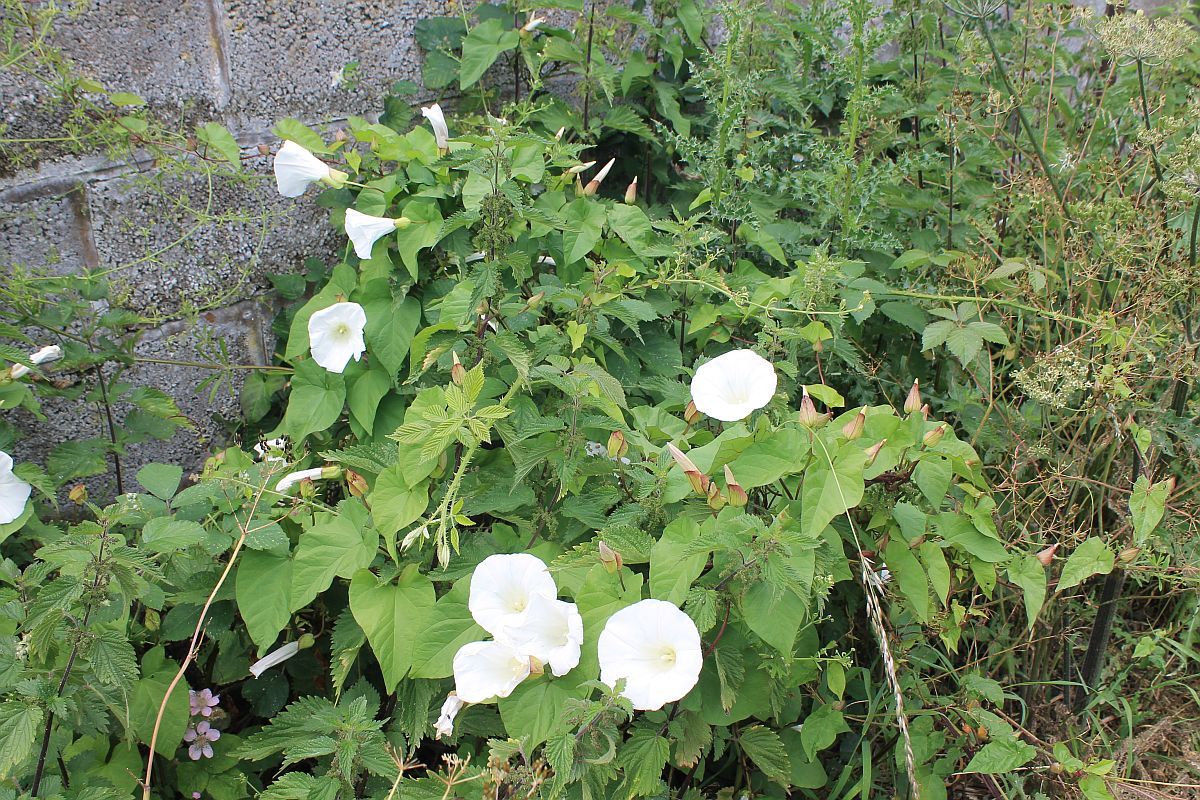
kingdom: Plantae
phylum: Tracheophyta
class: Magnoliopsida
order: Solanales
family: Convolvulaceae
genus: Calystegia
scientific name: Calystegia sepium
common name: Hedge bindweed
